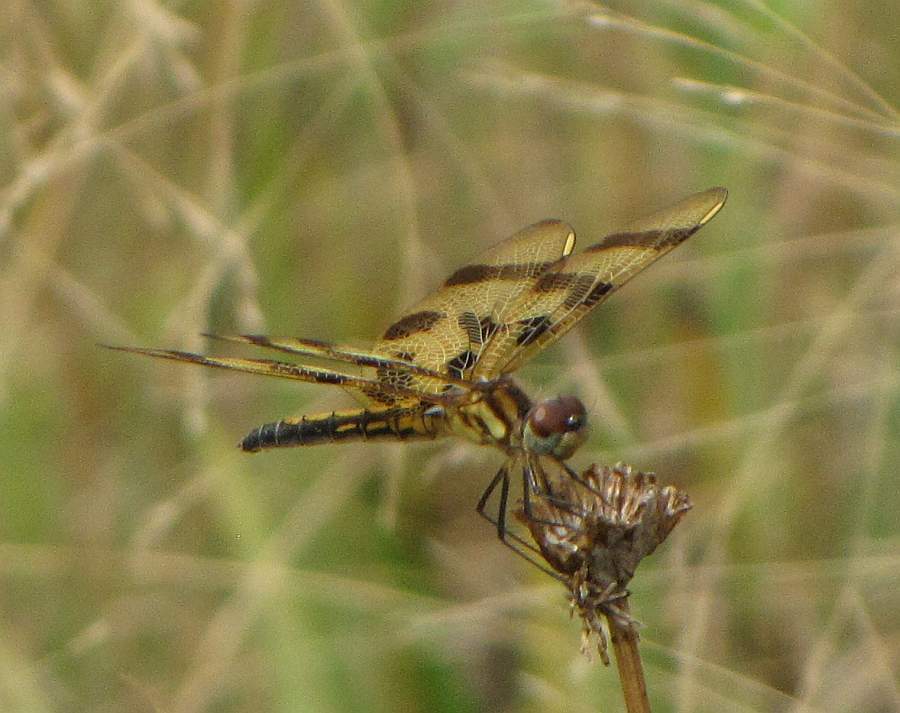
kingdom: Animalia
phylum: Arthropoda
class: Insecta
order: Odonata
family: Libellulidae
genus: Celithemis
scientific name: Celithemis eponina
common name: Halloween pennant
